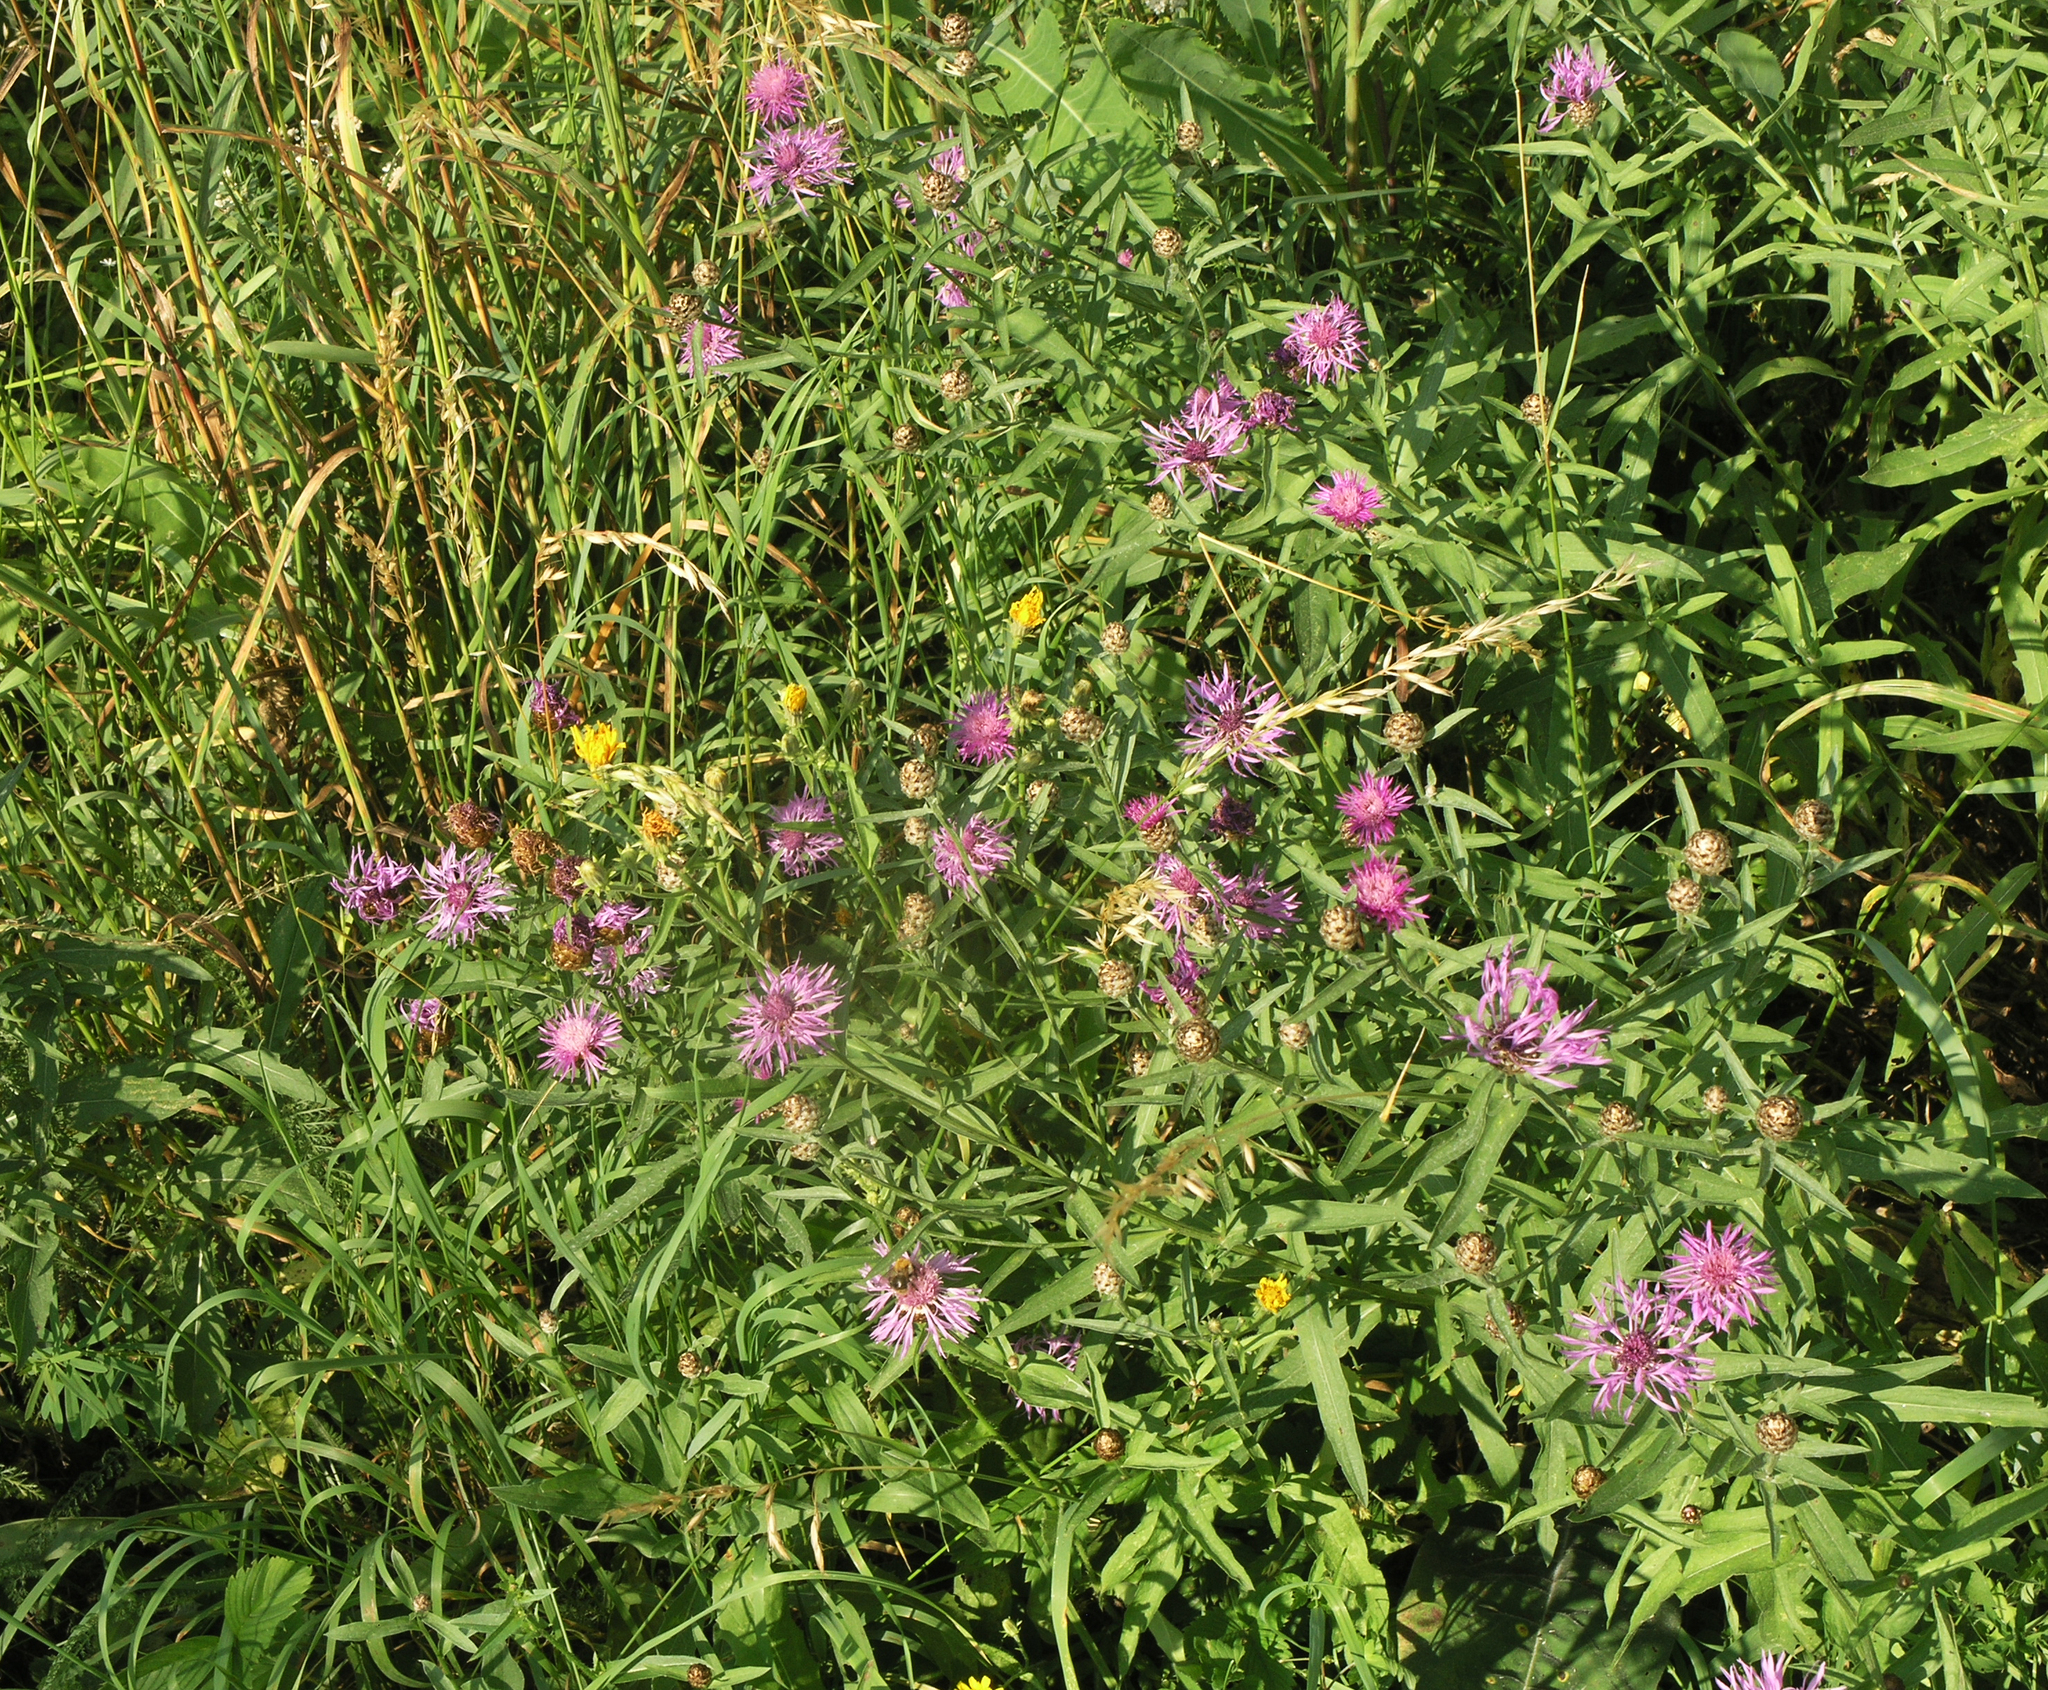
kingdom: Plantae
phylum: Tracheophyta
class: Magnoliopsida
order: Asterales
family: Asteraceae
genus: Centaurea
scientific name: Centaurea jacea
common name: Brown knapweed
